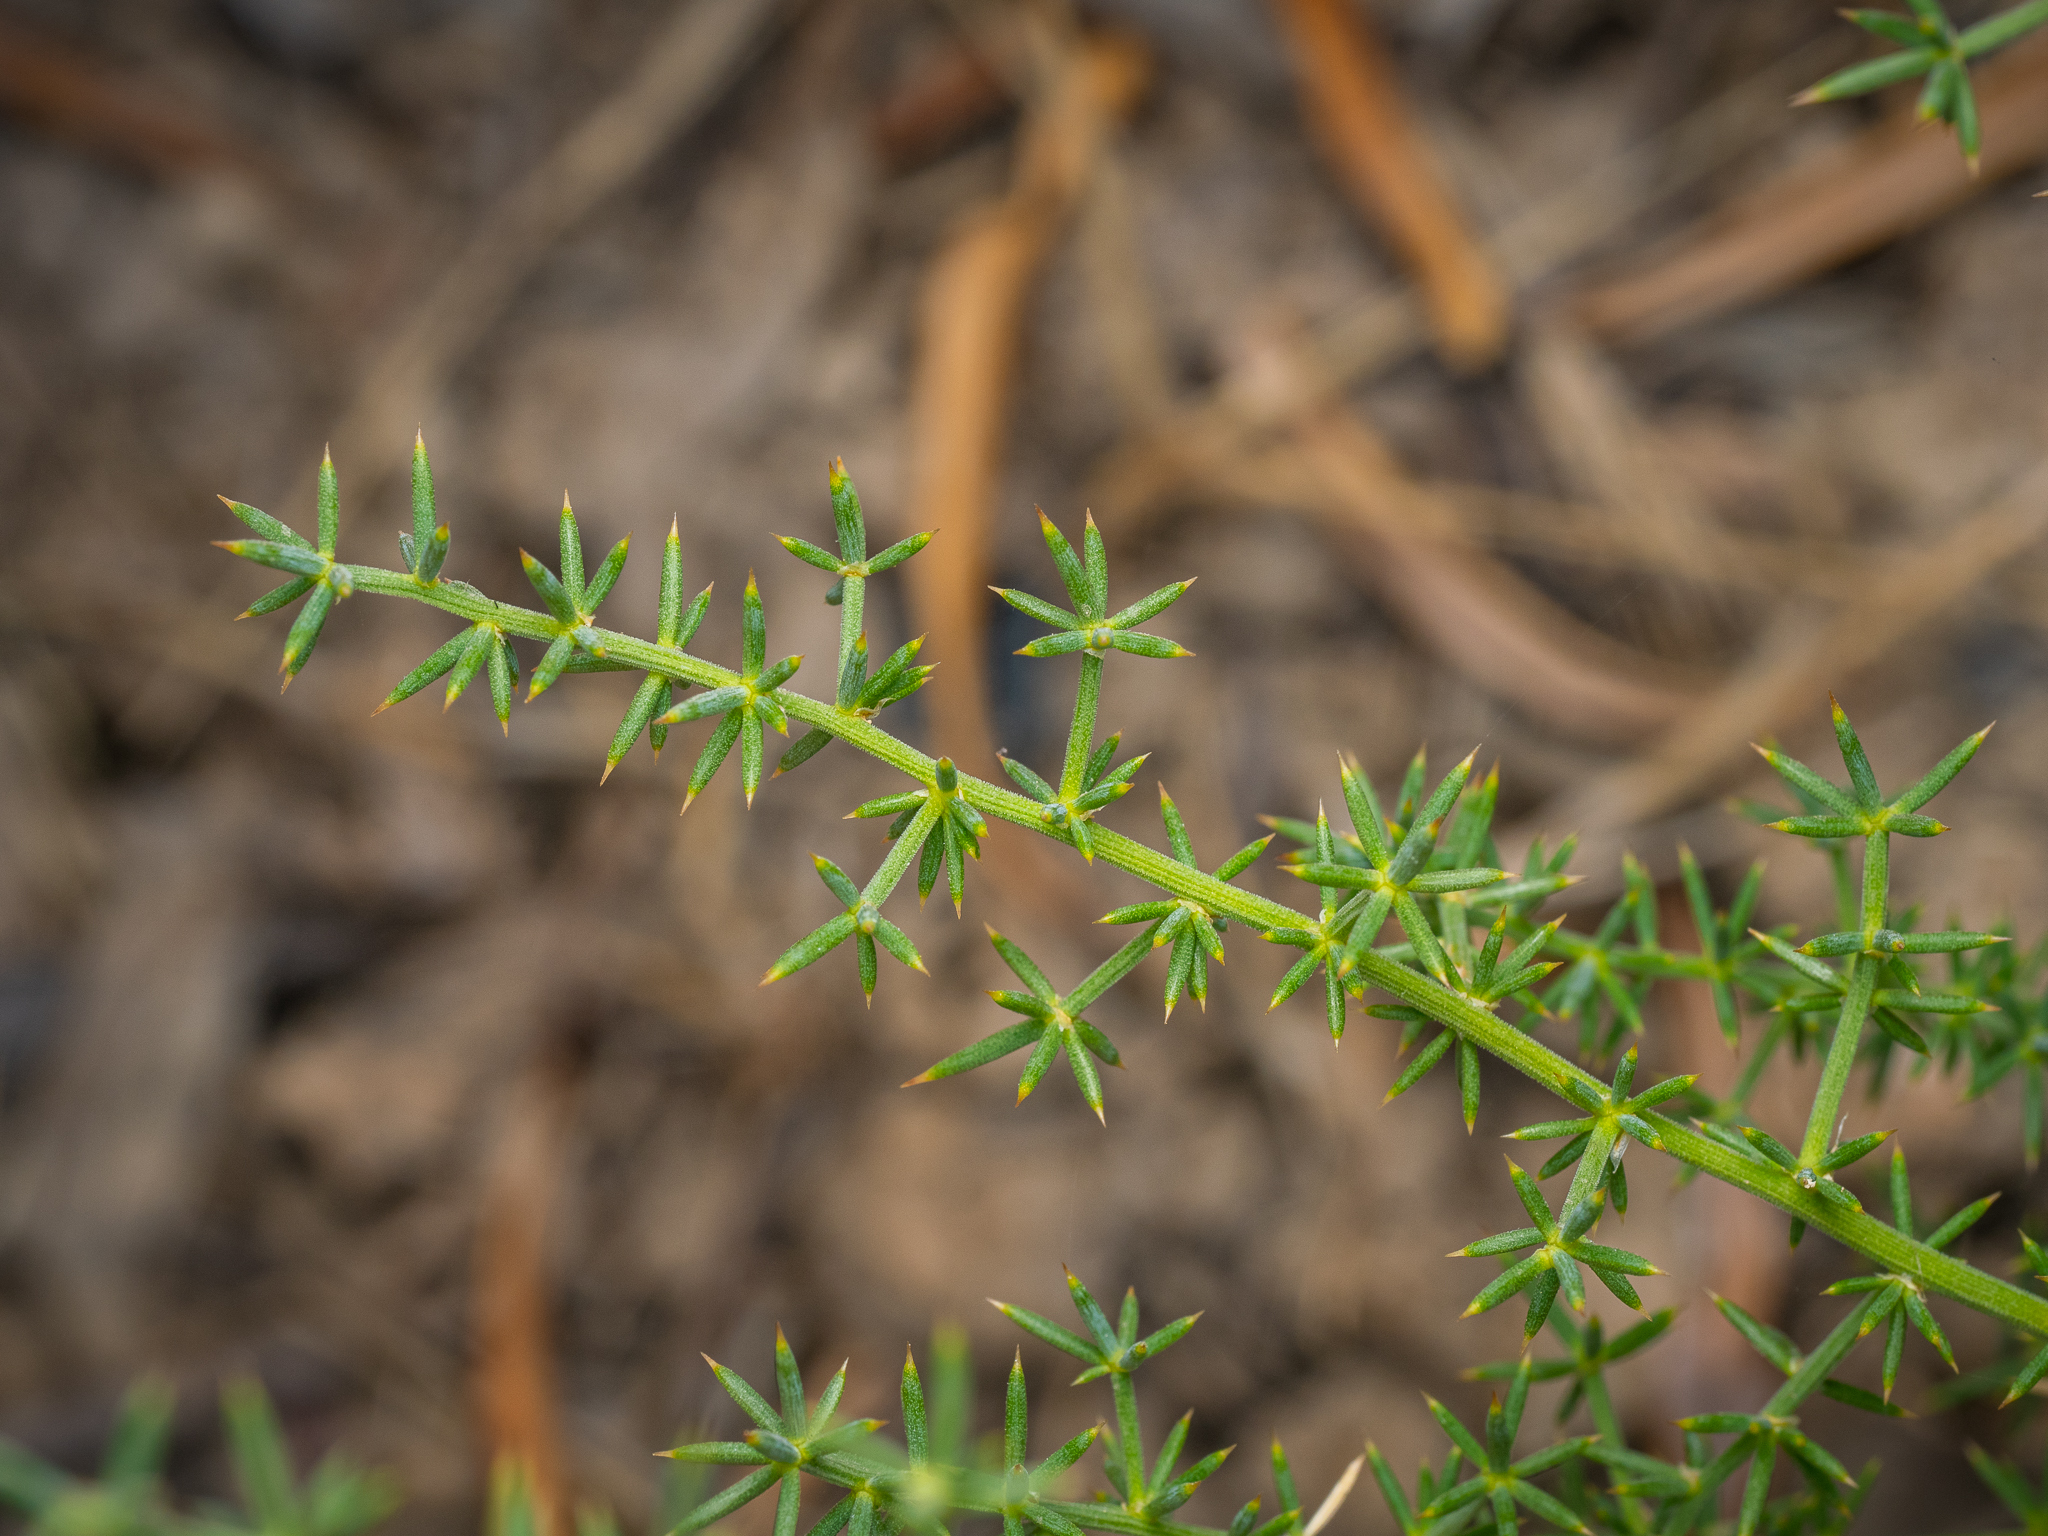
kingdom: Plantae
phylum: Tracheophyta
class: Liliopsida
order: Asparagales
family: Asparagaceae
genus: Asparagus
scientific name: Asparagus acutifolius
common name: Wild asparagus
